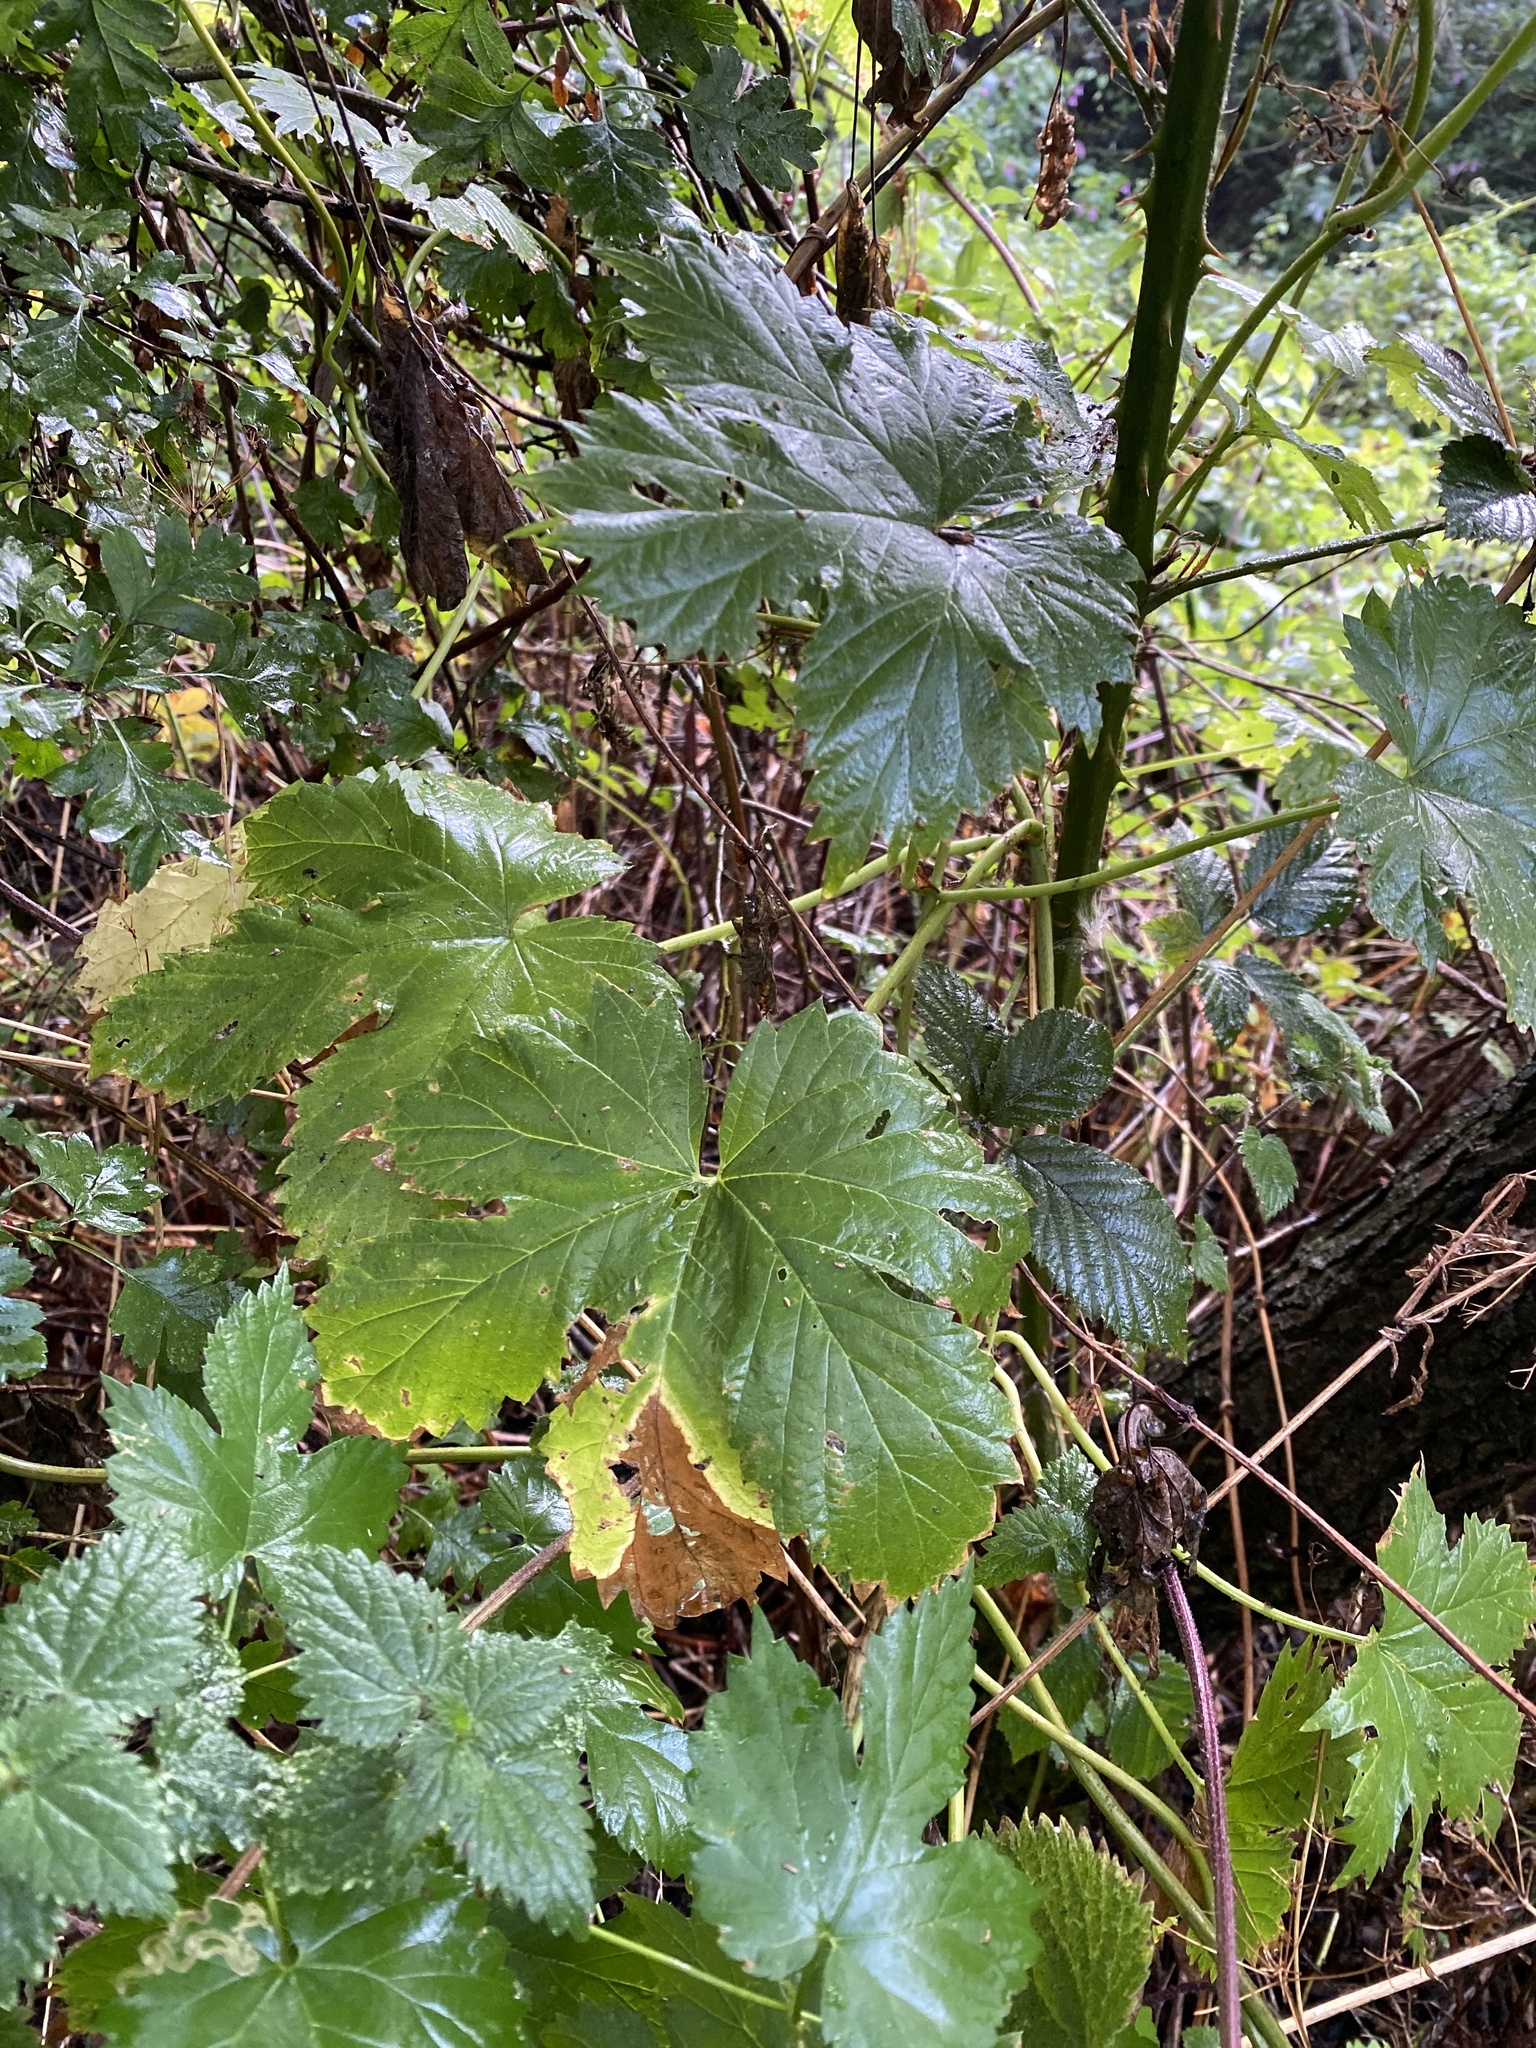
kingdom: Plantae
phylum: Tracheophyta
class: Magnoliopsida
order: Rosales
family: Cannabaceae
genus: Humulus
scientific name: Humulus lupulus
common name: Hop
